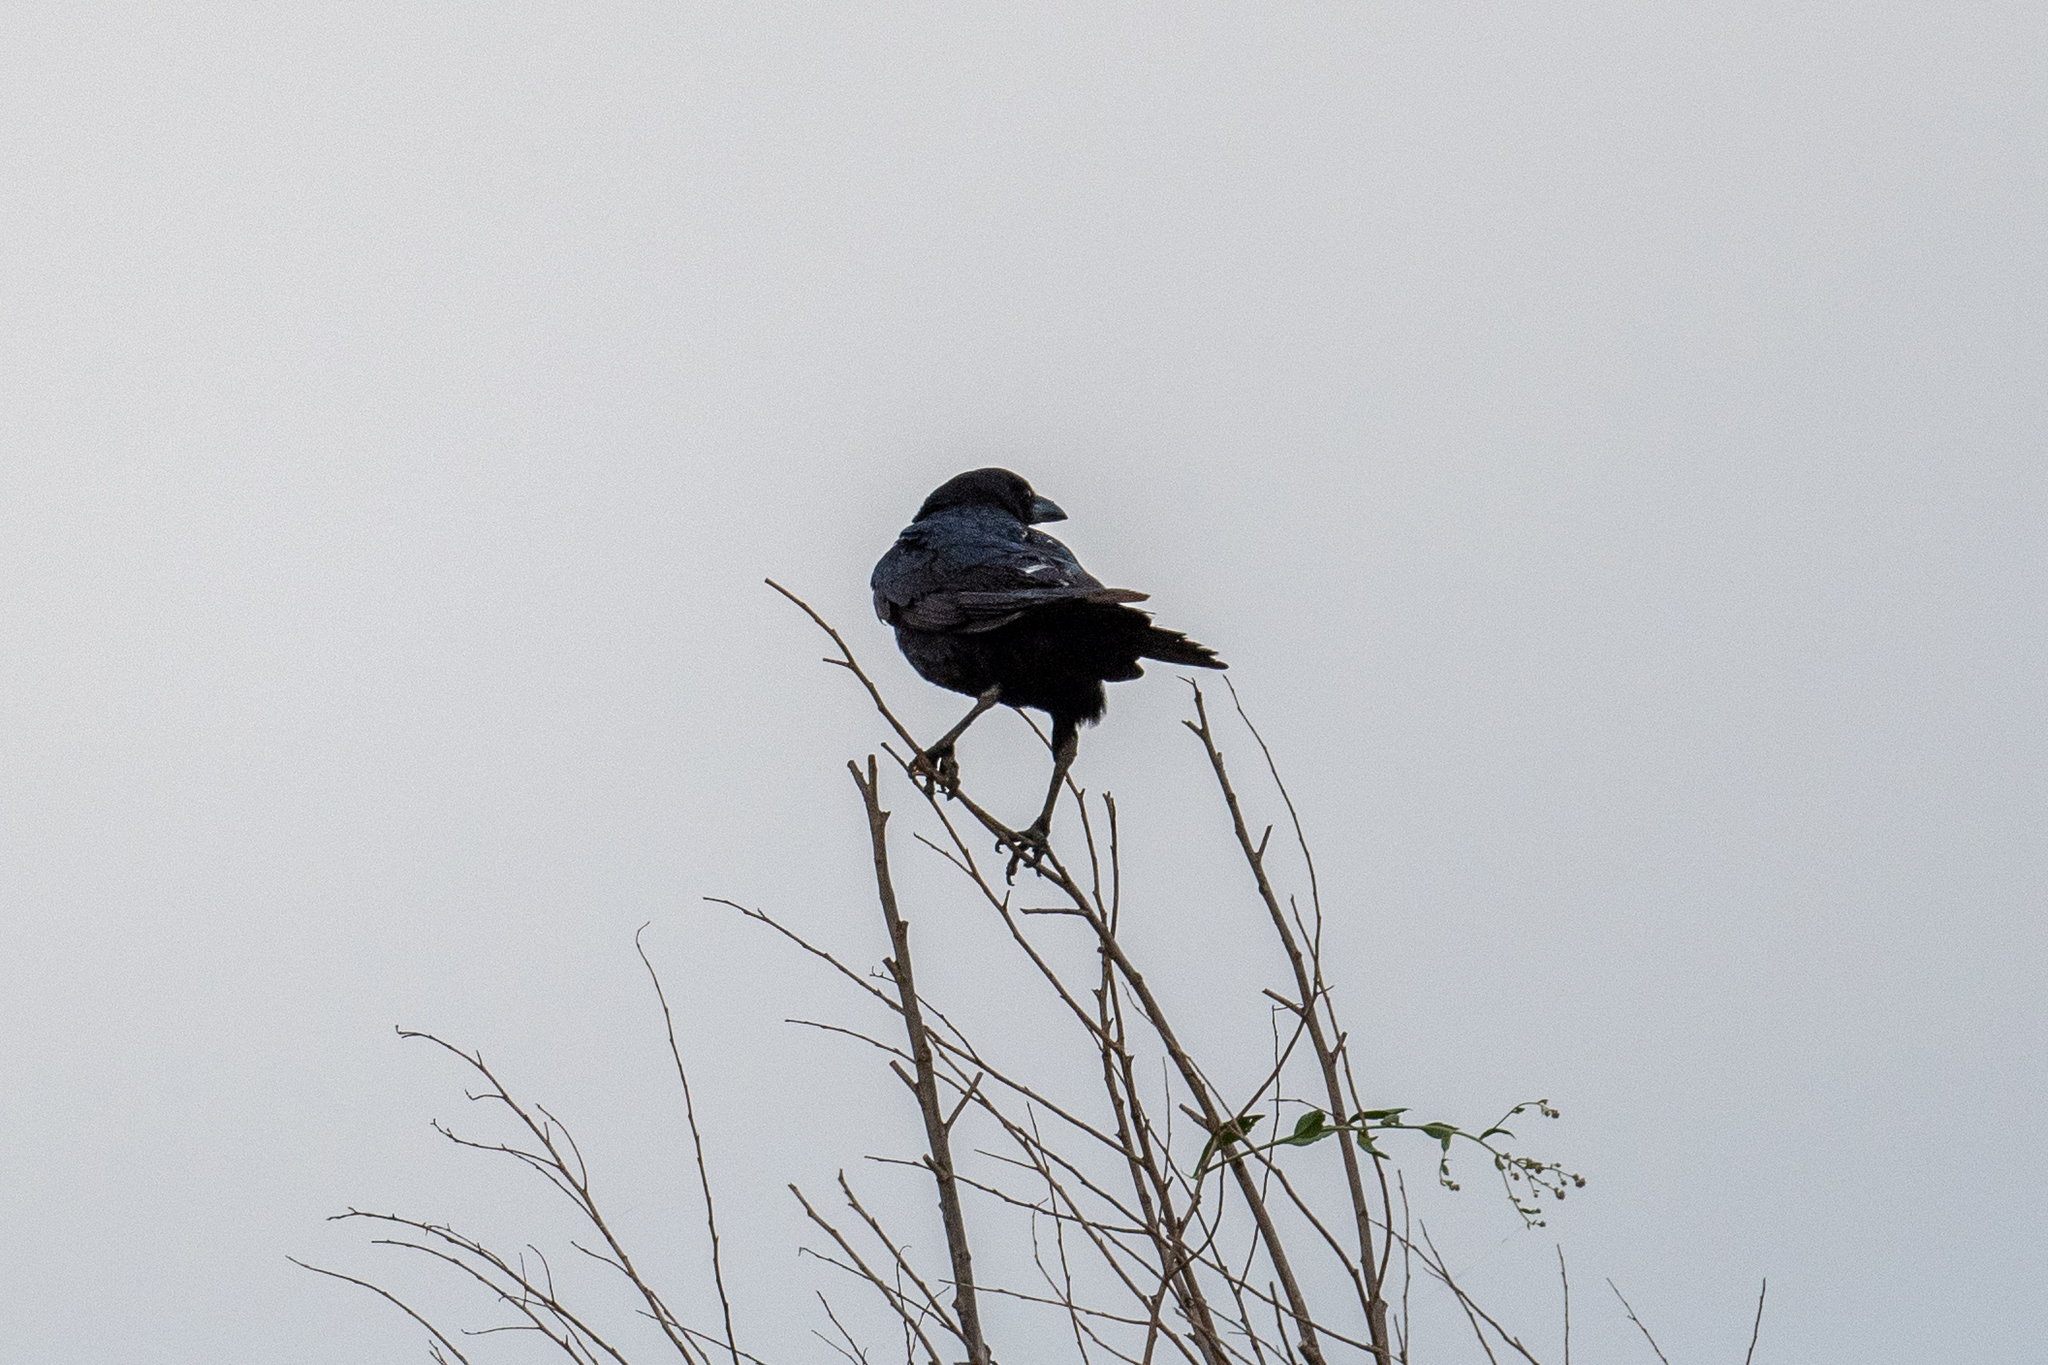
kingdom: Animalia
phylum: Chordata
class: Aves
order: Passeriformes
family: Corvidae
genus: Corvus
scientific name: Corvus corax
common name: Common raven
